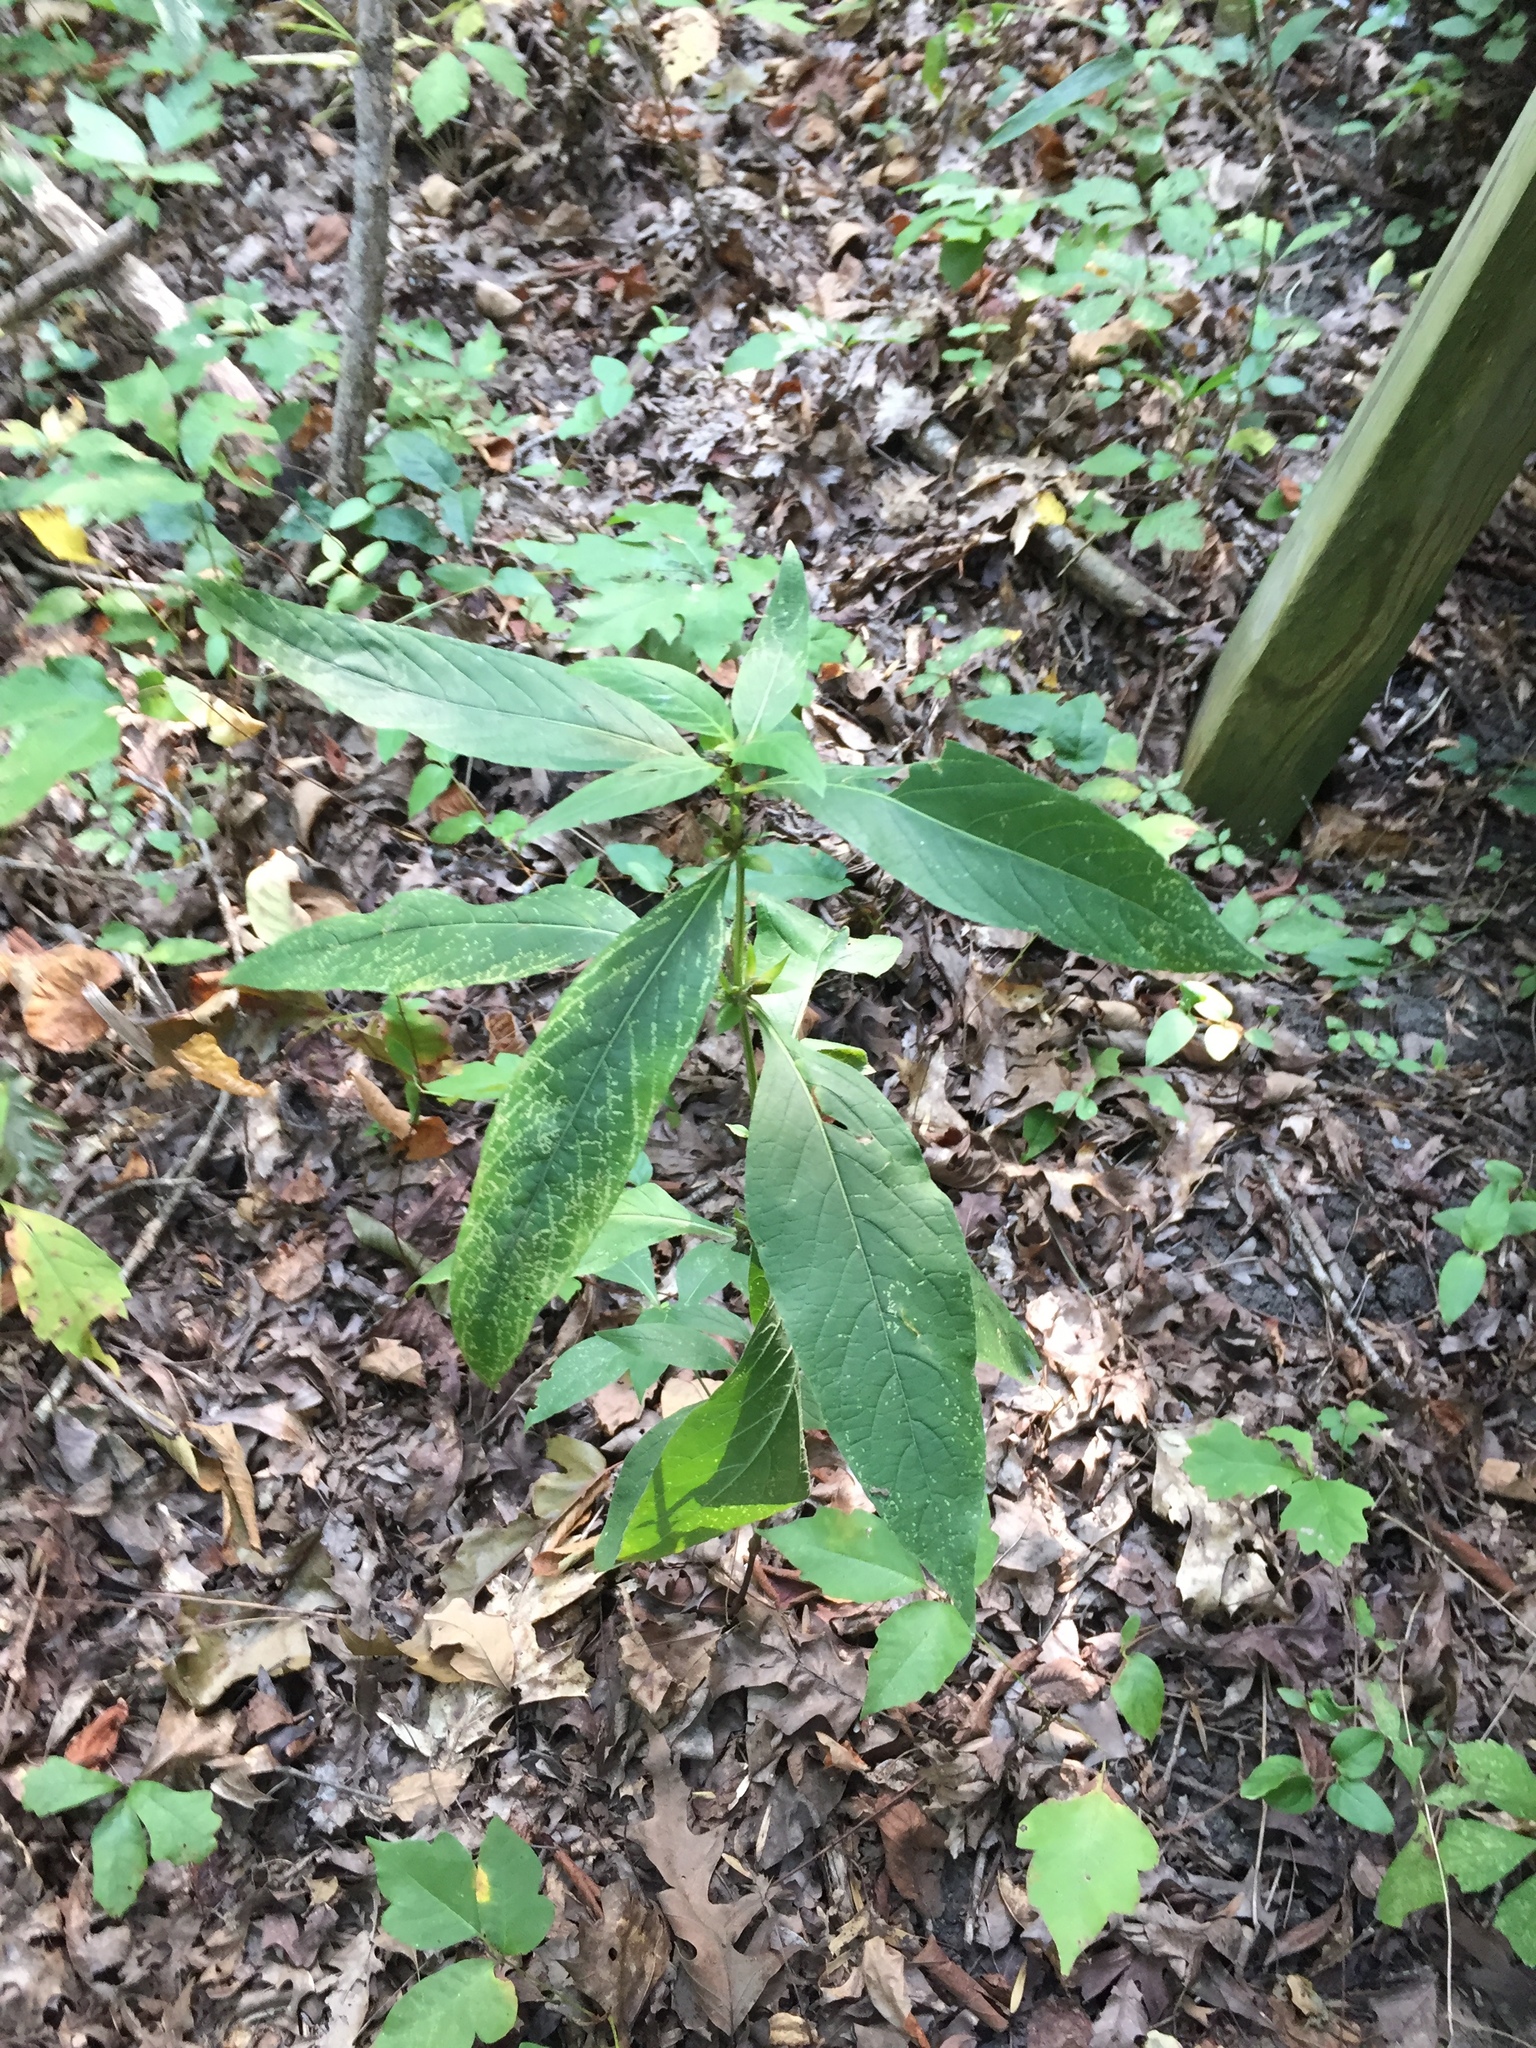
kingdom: Plantae
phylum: Tracheophyta
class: Magnoliopsida
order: Lamiales
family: Acanthaceae
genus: Ruellia
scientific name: Ruellia strepens
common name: Limestone wild petunia
